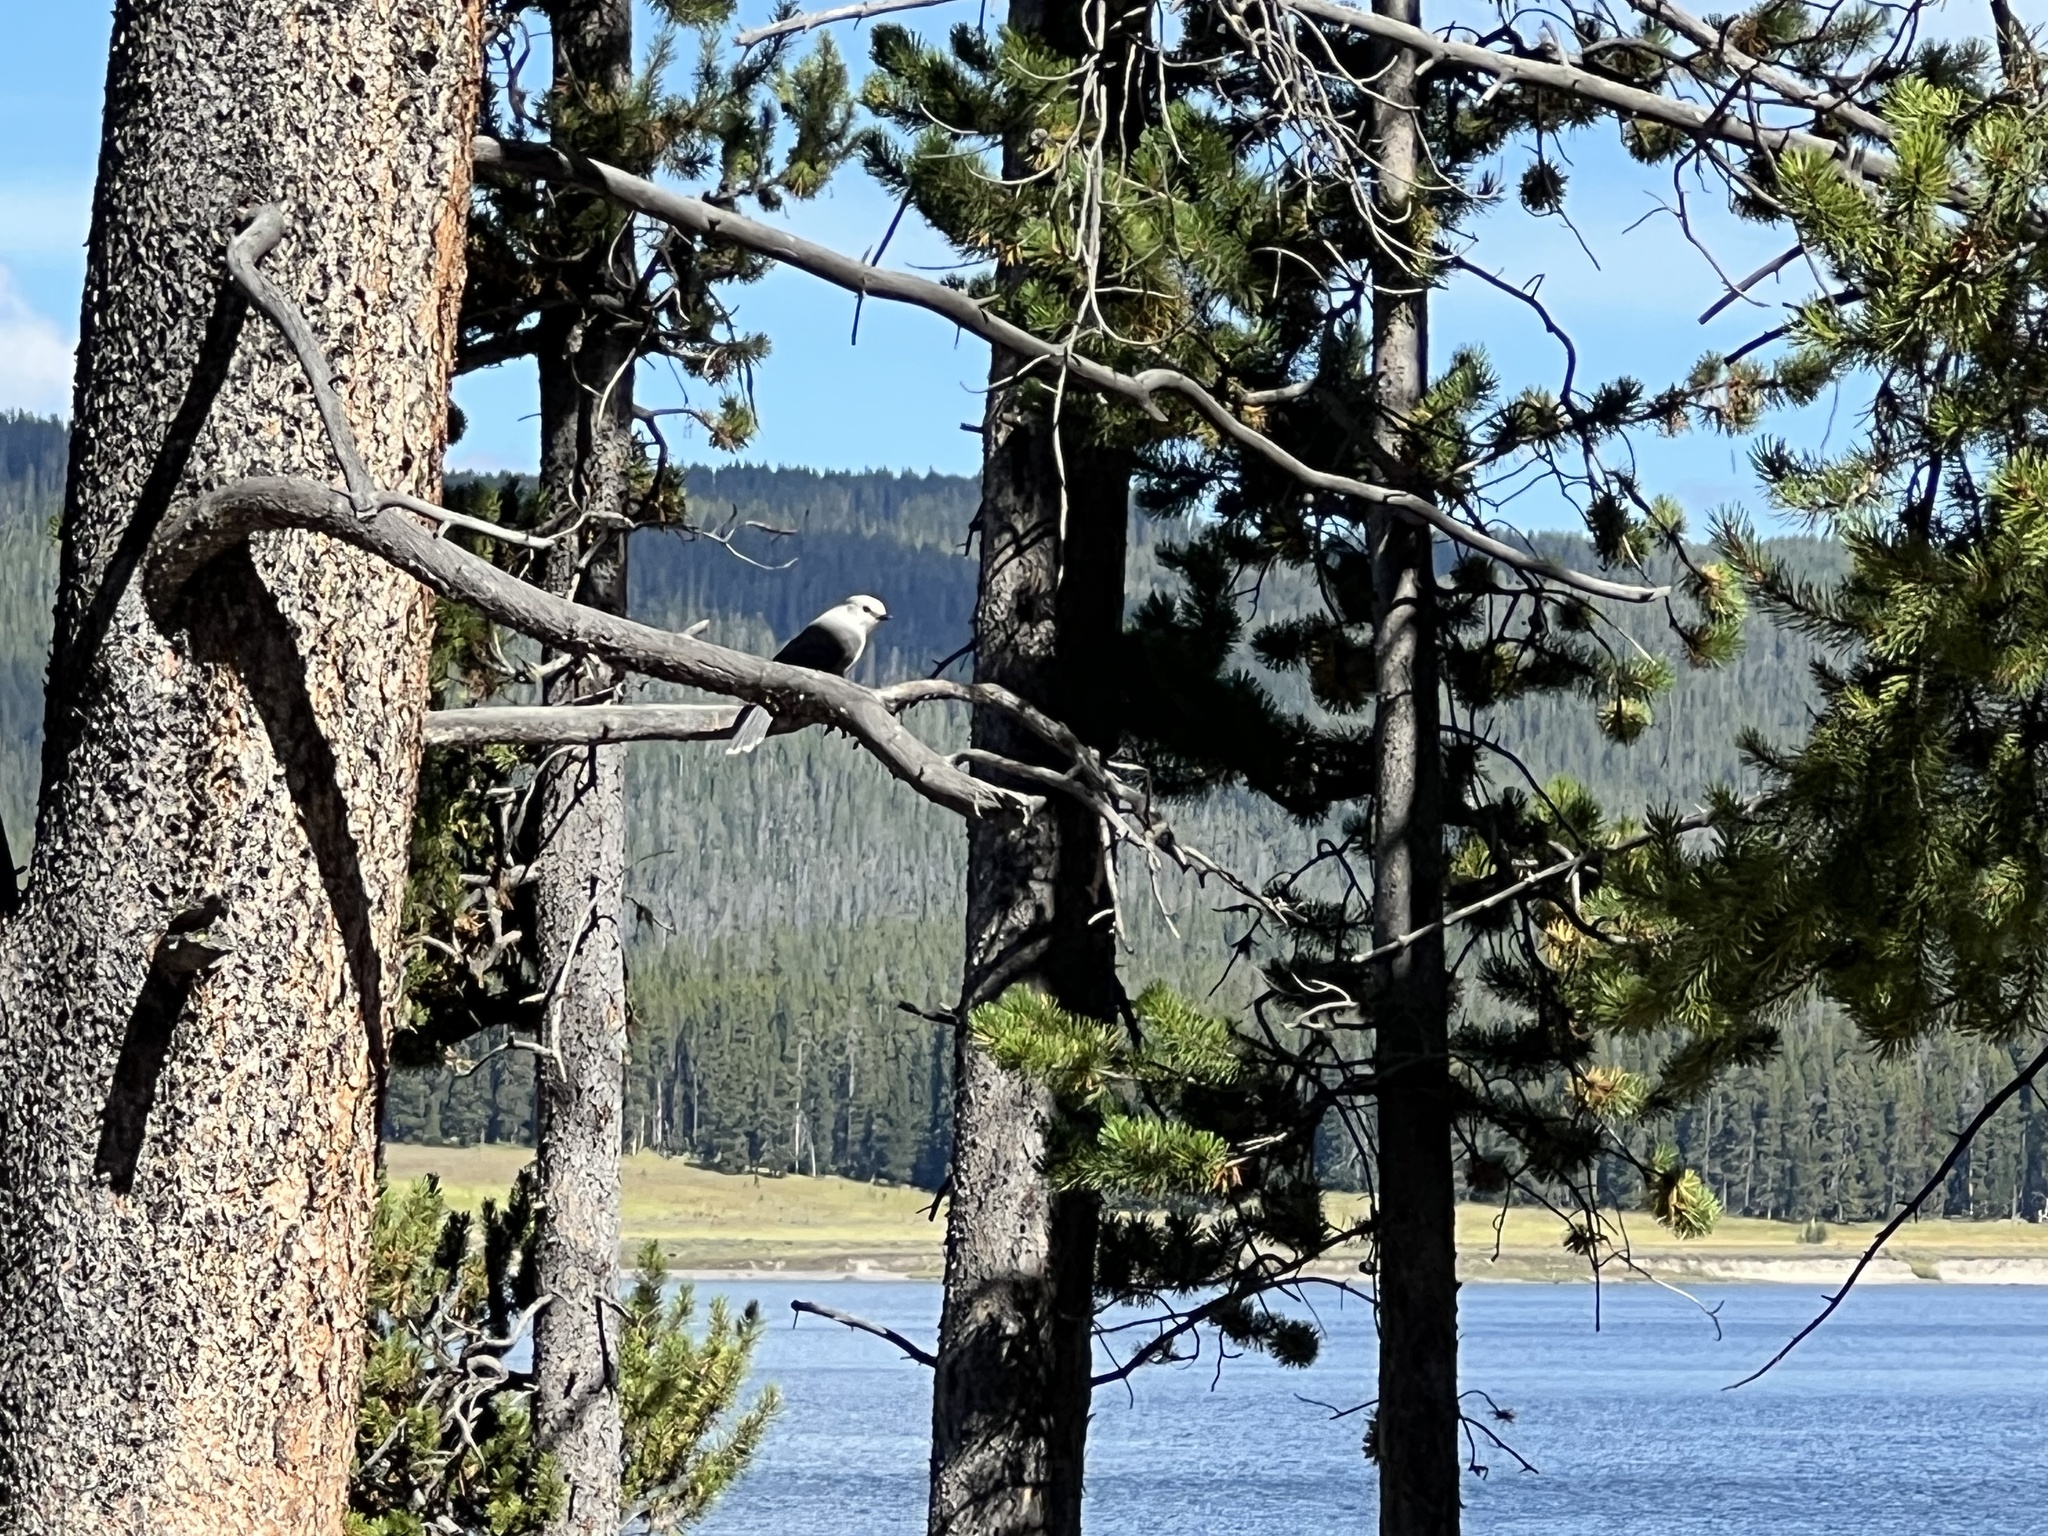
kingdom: Animalia
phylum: Chordata
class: Aves
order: Passeriformes
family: Corvidae
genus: Perisoreus
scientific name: Perisoreus canadensis
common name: Gray jay
